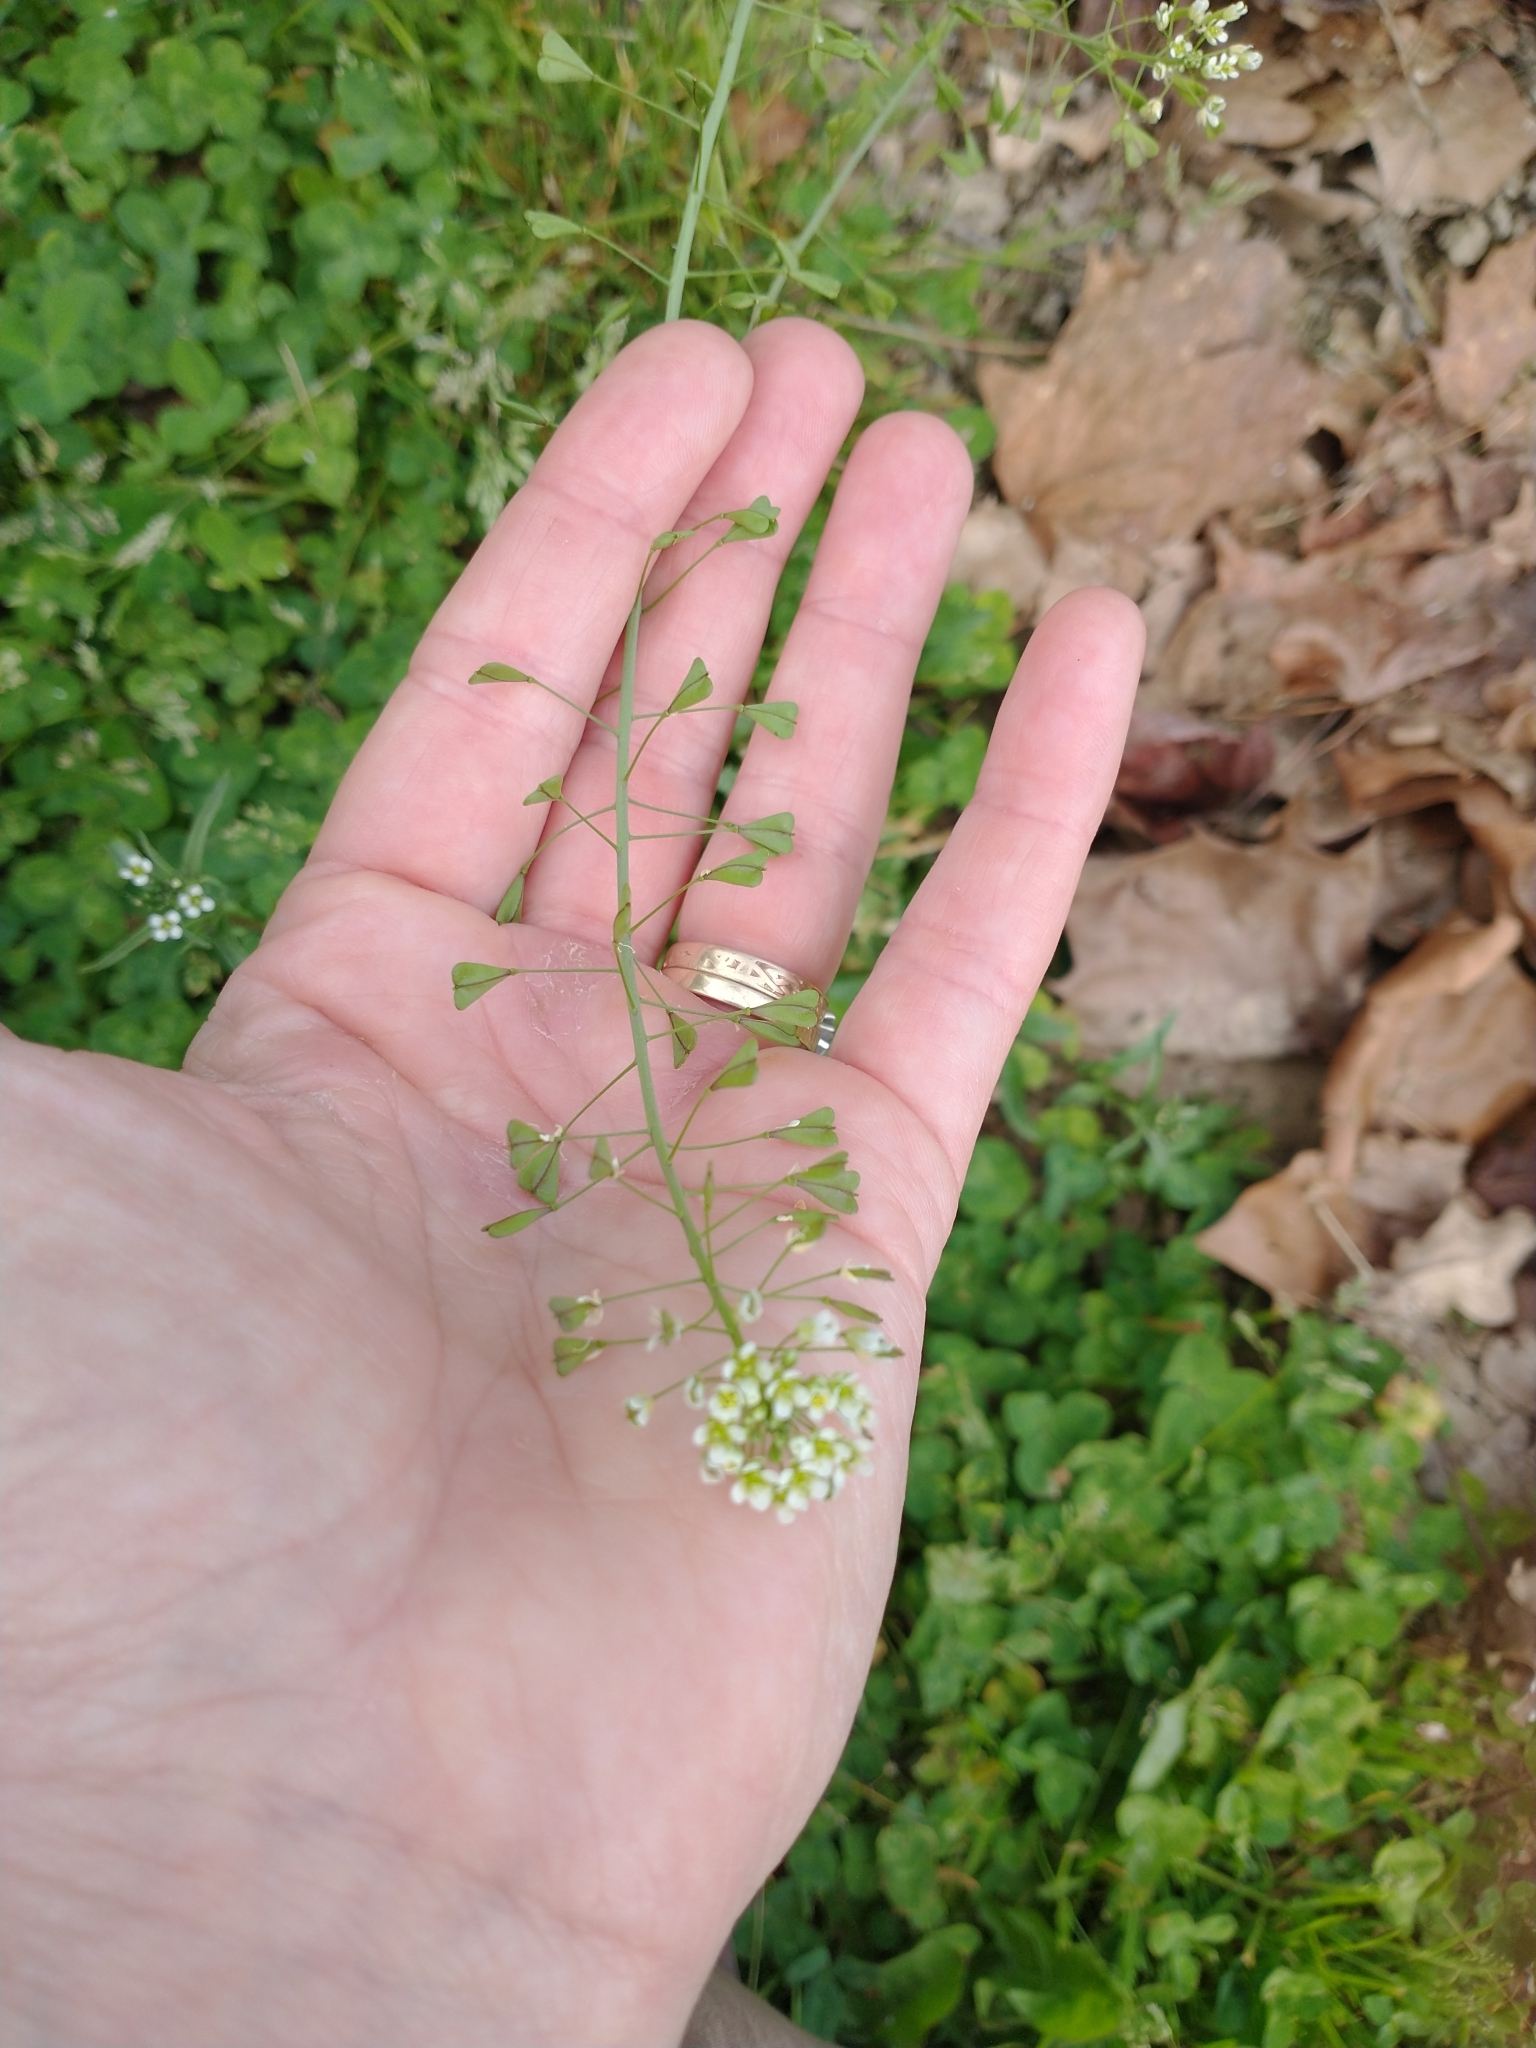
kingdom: Plantae
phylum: Tracheophyta
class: Magnoliopsida
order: Brassicales
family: Brassicaceae
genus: Capsella
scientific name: Capsella bursa-pastoris
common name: Shepherd's purse
